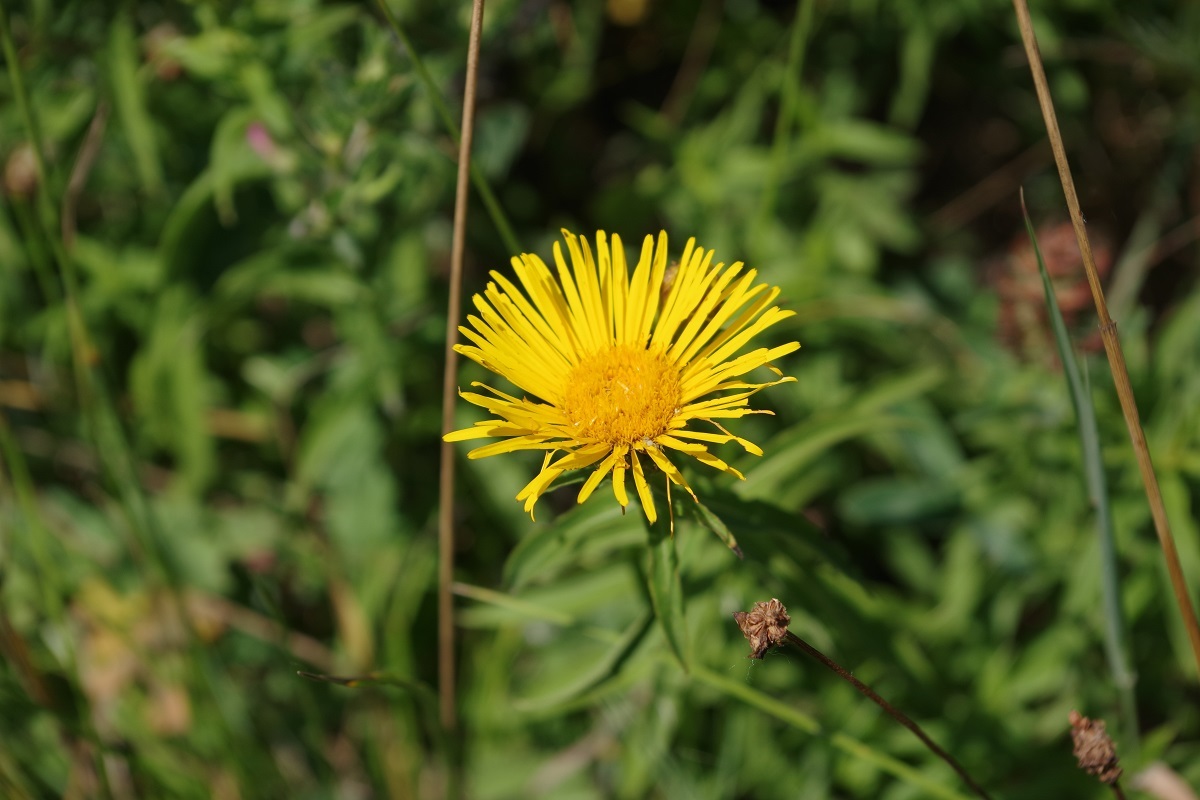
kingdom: Plantae
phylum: Tracheophyta
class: Magnoliopsida
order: Asterales
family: Asteraceae
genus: Pentanema
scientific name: Pentanema salicinum
